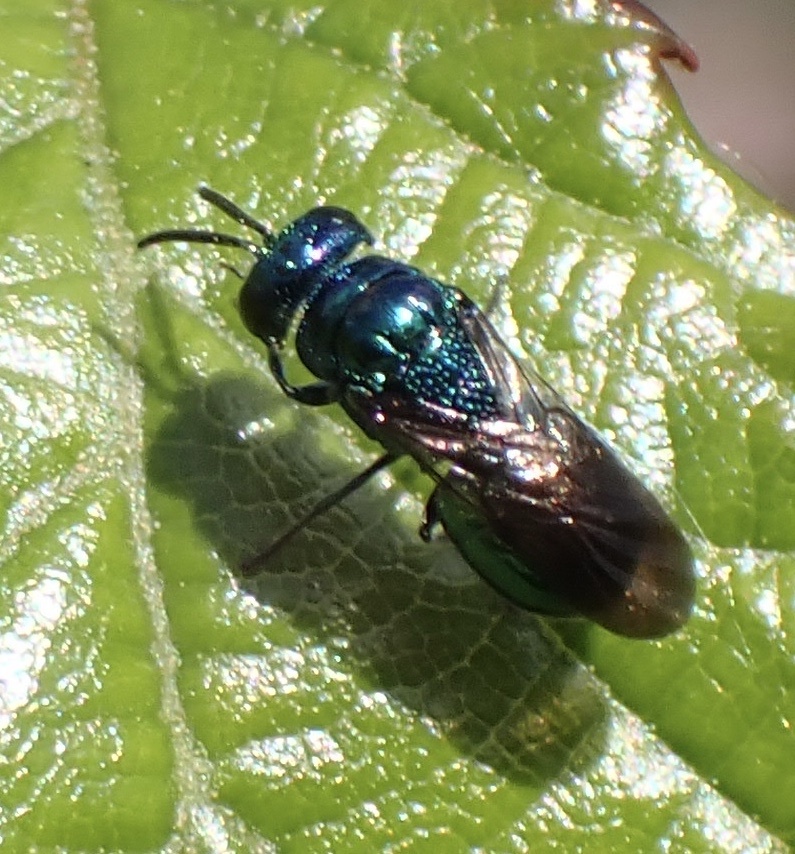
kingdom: Animalia
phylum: Arthropoda
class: Insecta
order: Hymenoptera
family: Chrysididae
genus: Omalus
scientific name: Omalus aeneus
